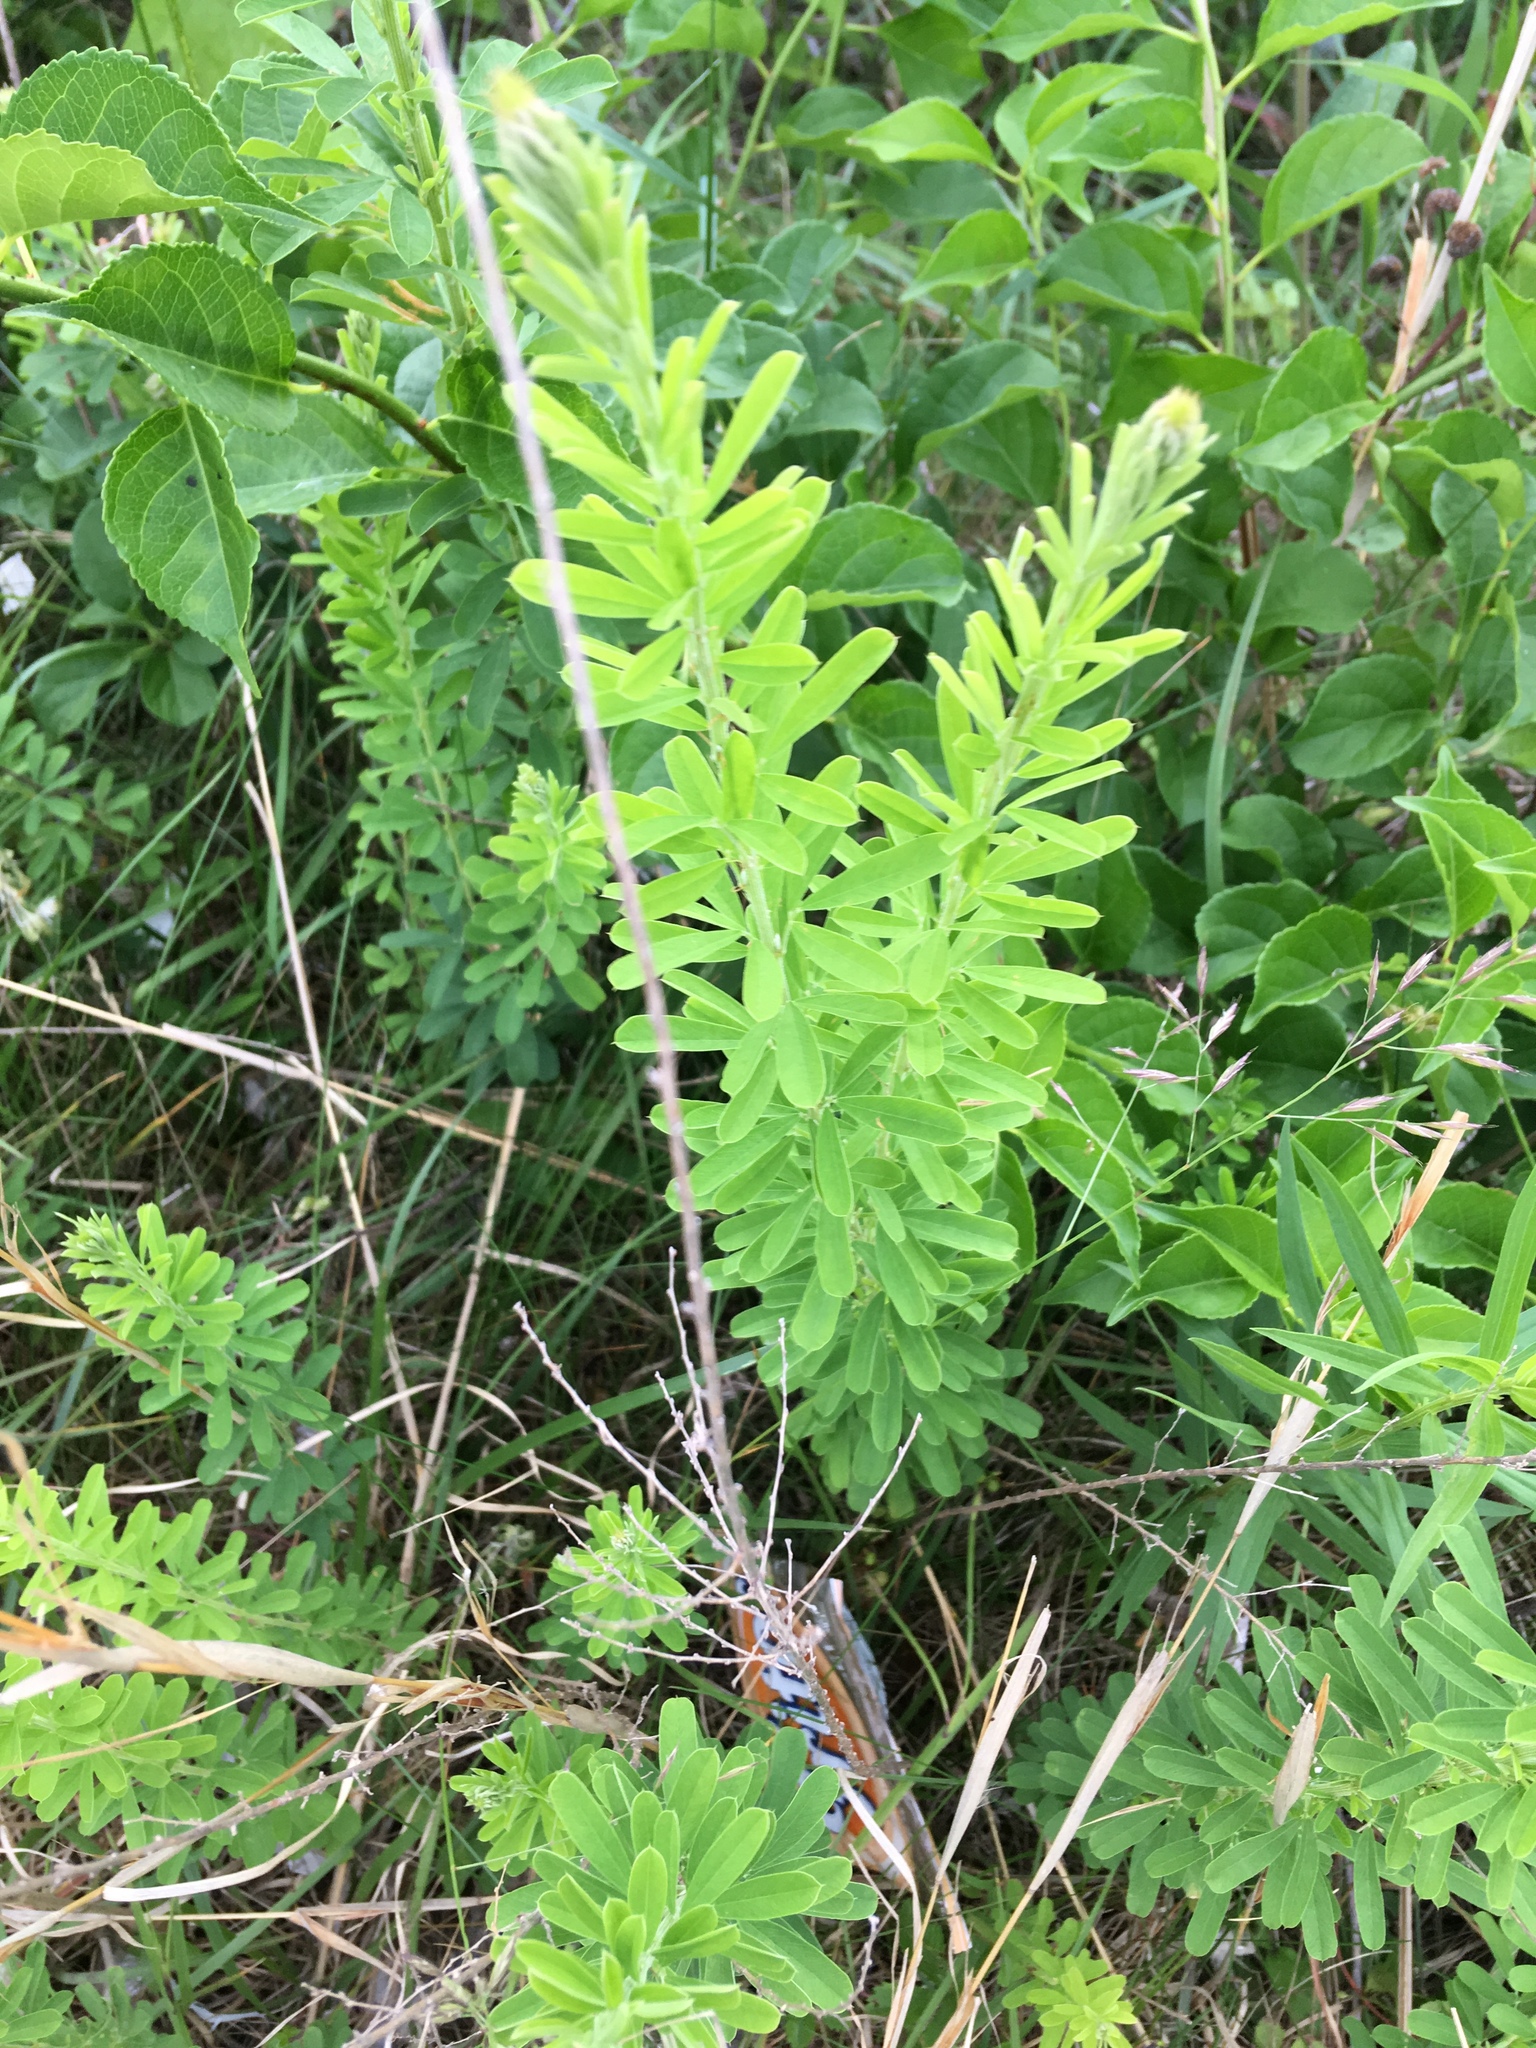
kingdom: Plantae
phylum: Tracheophyta
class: Magnoliopsida
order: Fabales
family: Fabaceae
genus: Lespedeza
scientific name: Lespedeza cuneata
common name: Chinese bush-clover
